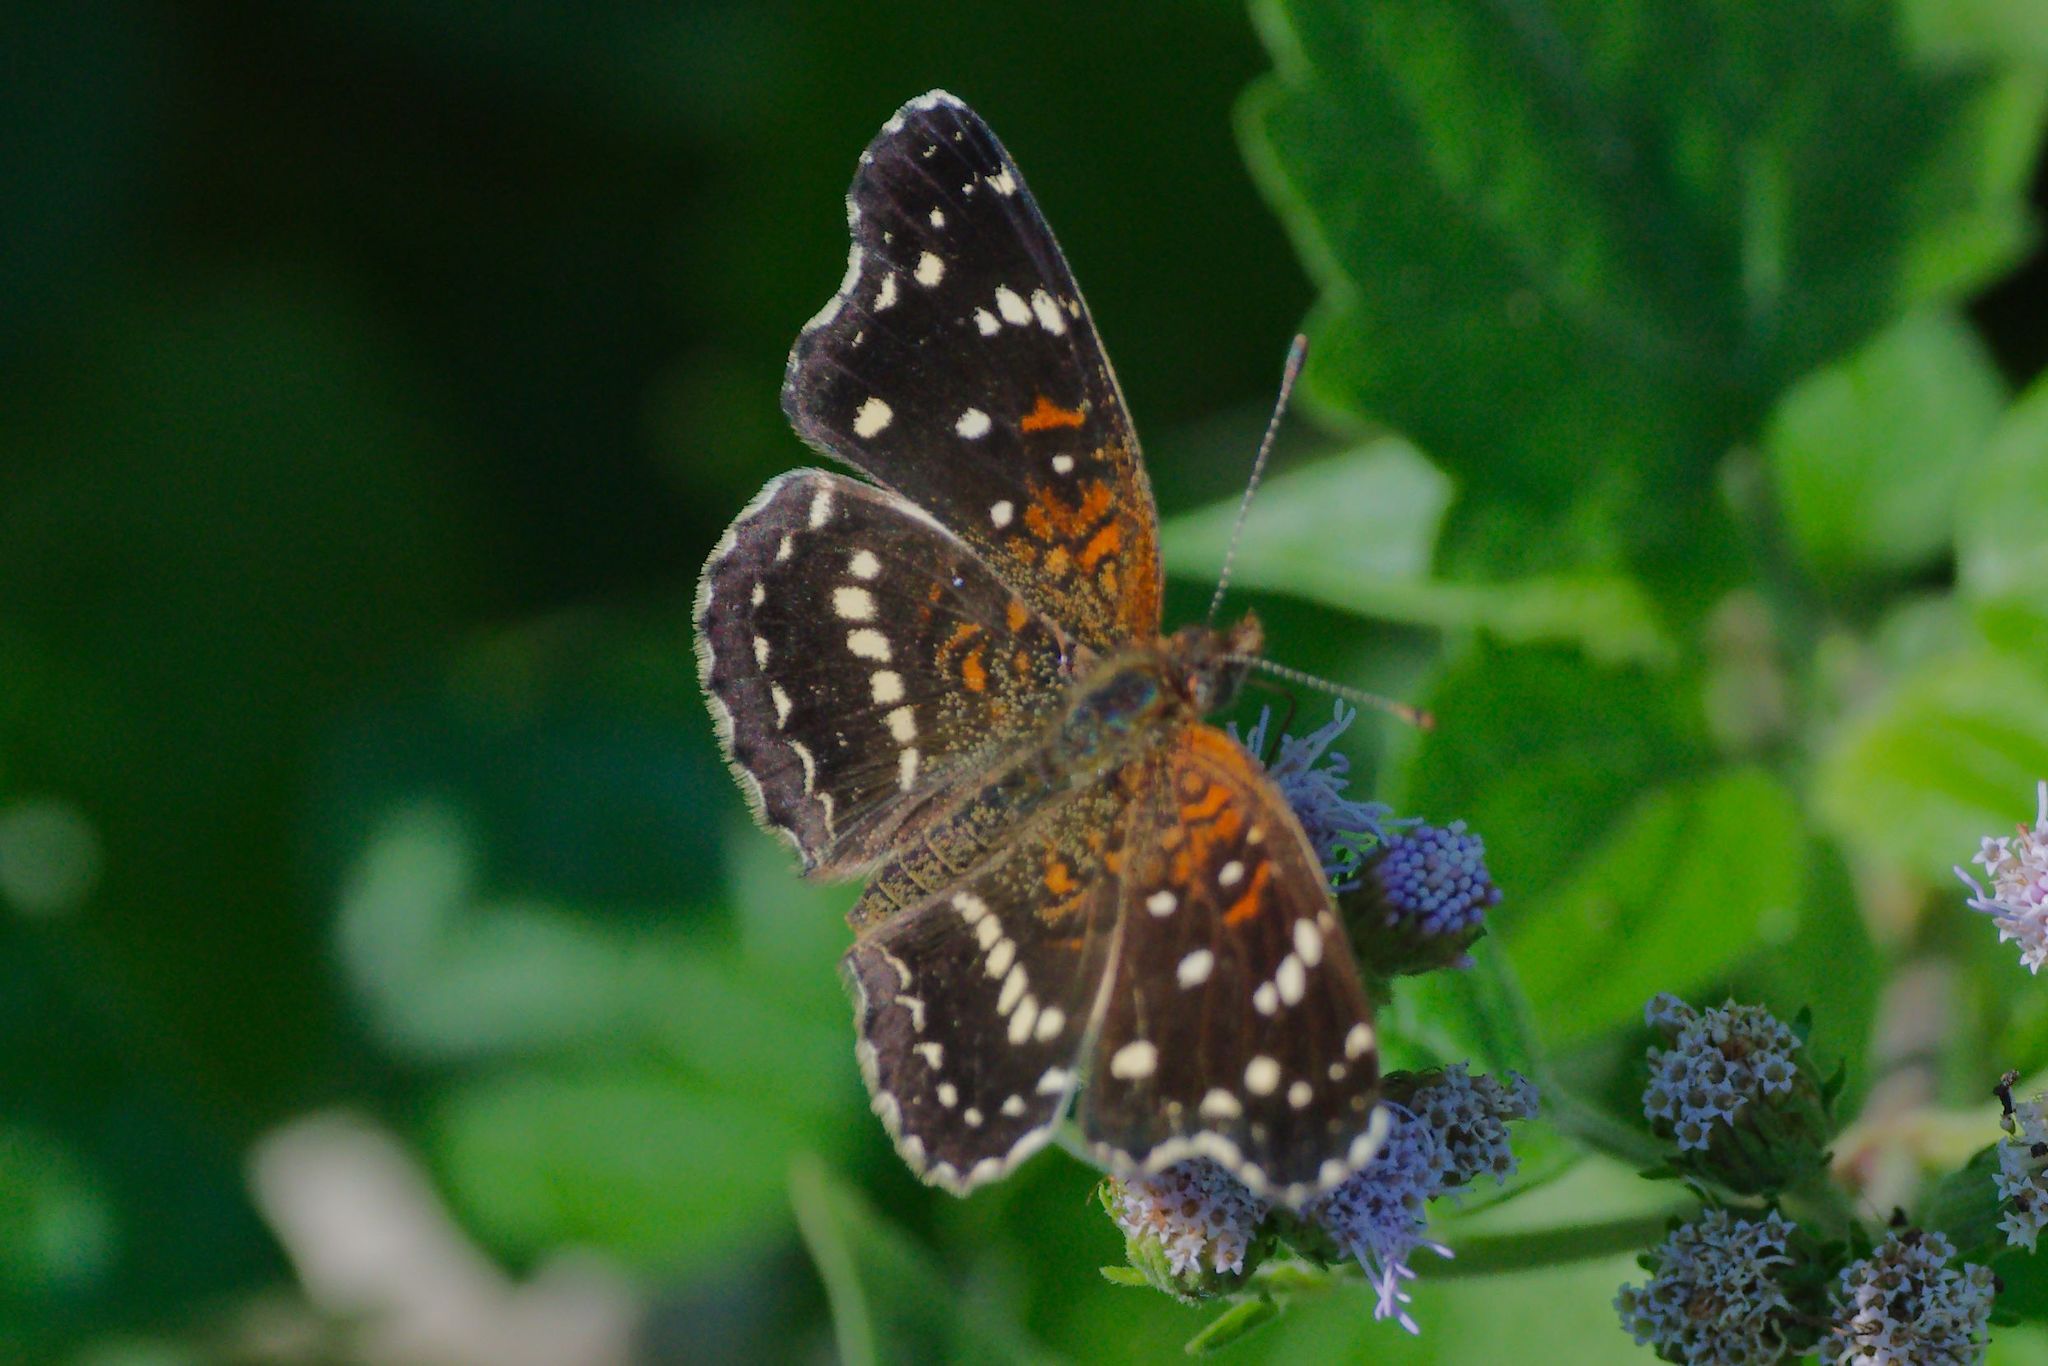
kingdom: Animalia
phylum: Arthropoda
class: Insecta
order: Lepidoptera
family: Nymphalidae
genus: Anthanassa
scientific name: Anthanassa texana
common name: Texan crescent
